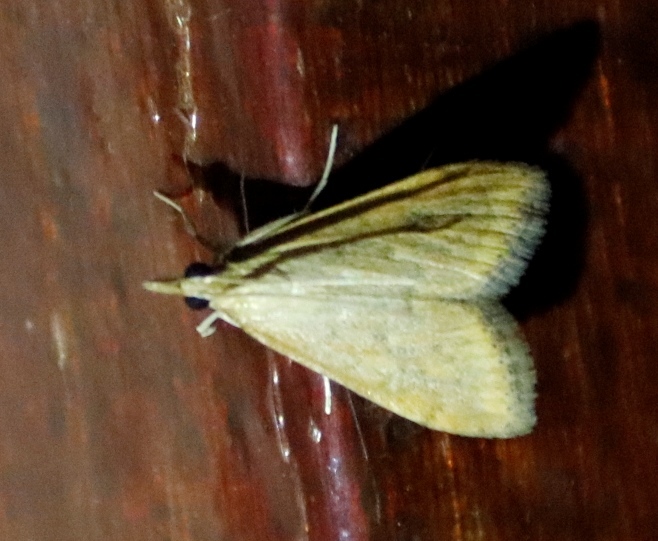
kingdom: Animalia
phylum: Arthropoda
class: Insecta
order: Lepidoptera
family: Crambidae
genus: Udea
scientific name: Udea ferrugalis
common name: Rusty dot
